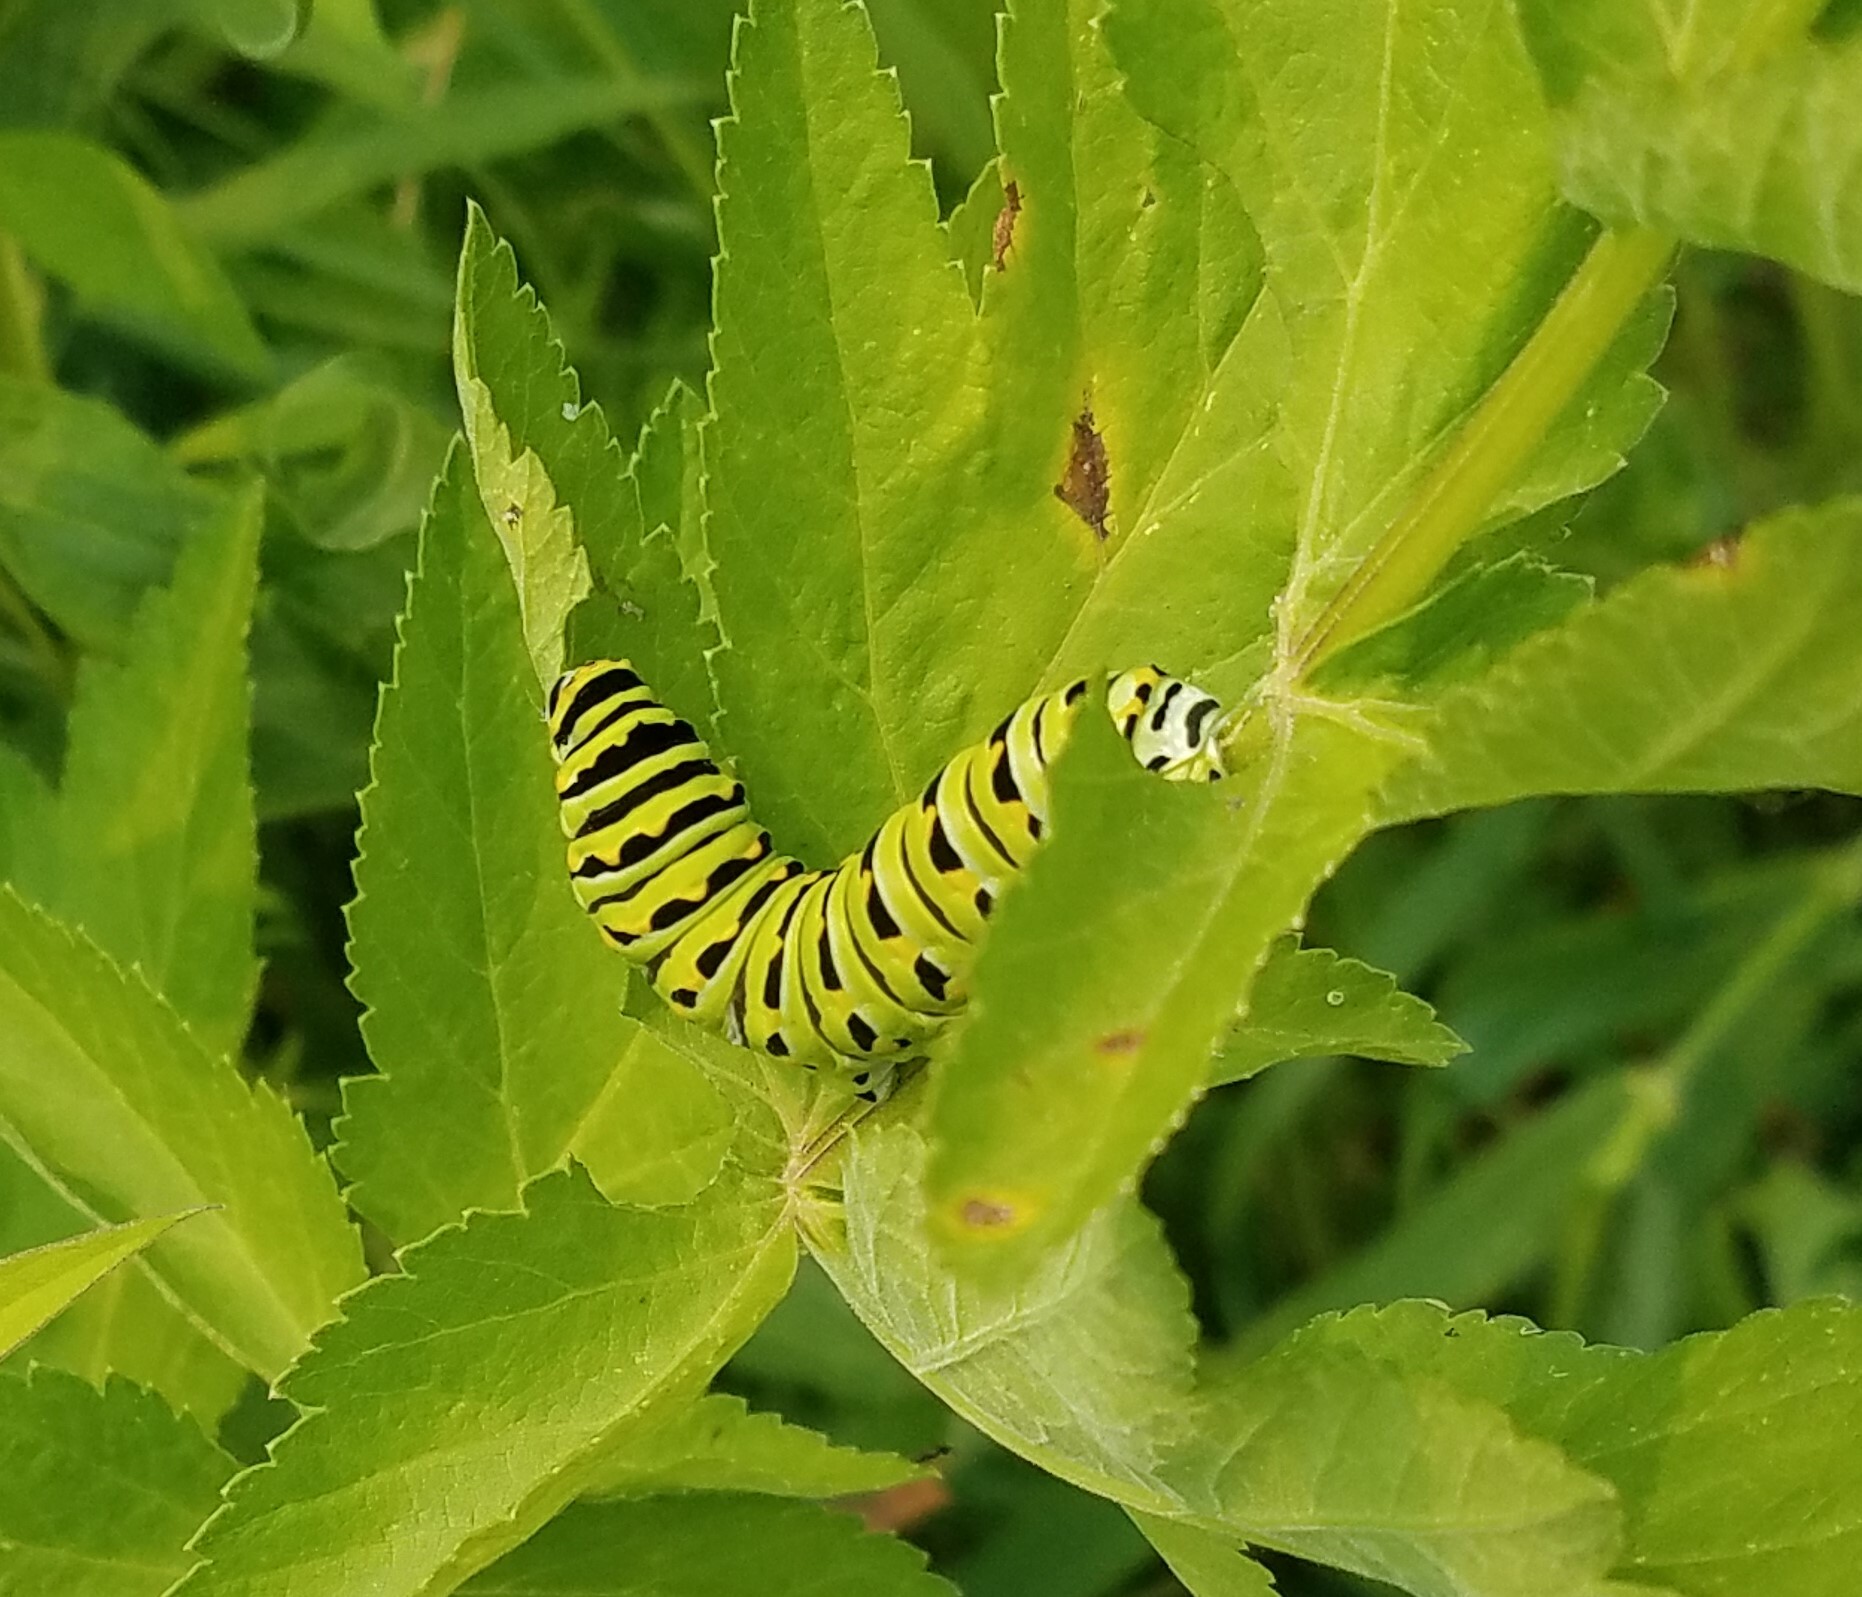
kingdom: Animalia
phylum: Arthropoda
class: Insecta
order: Lepidoptera
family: Papilionidae
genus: Papilio
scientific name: Papilio polyxenes
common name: Black swallowtail
